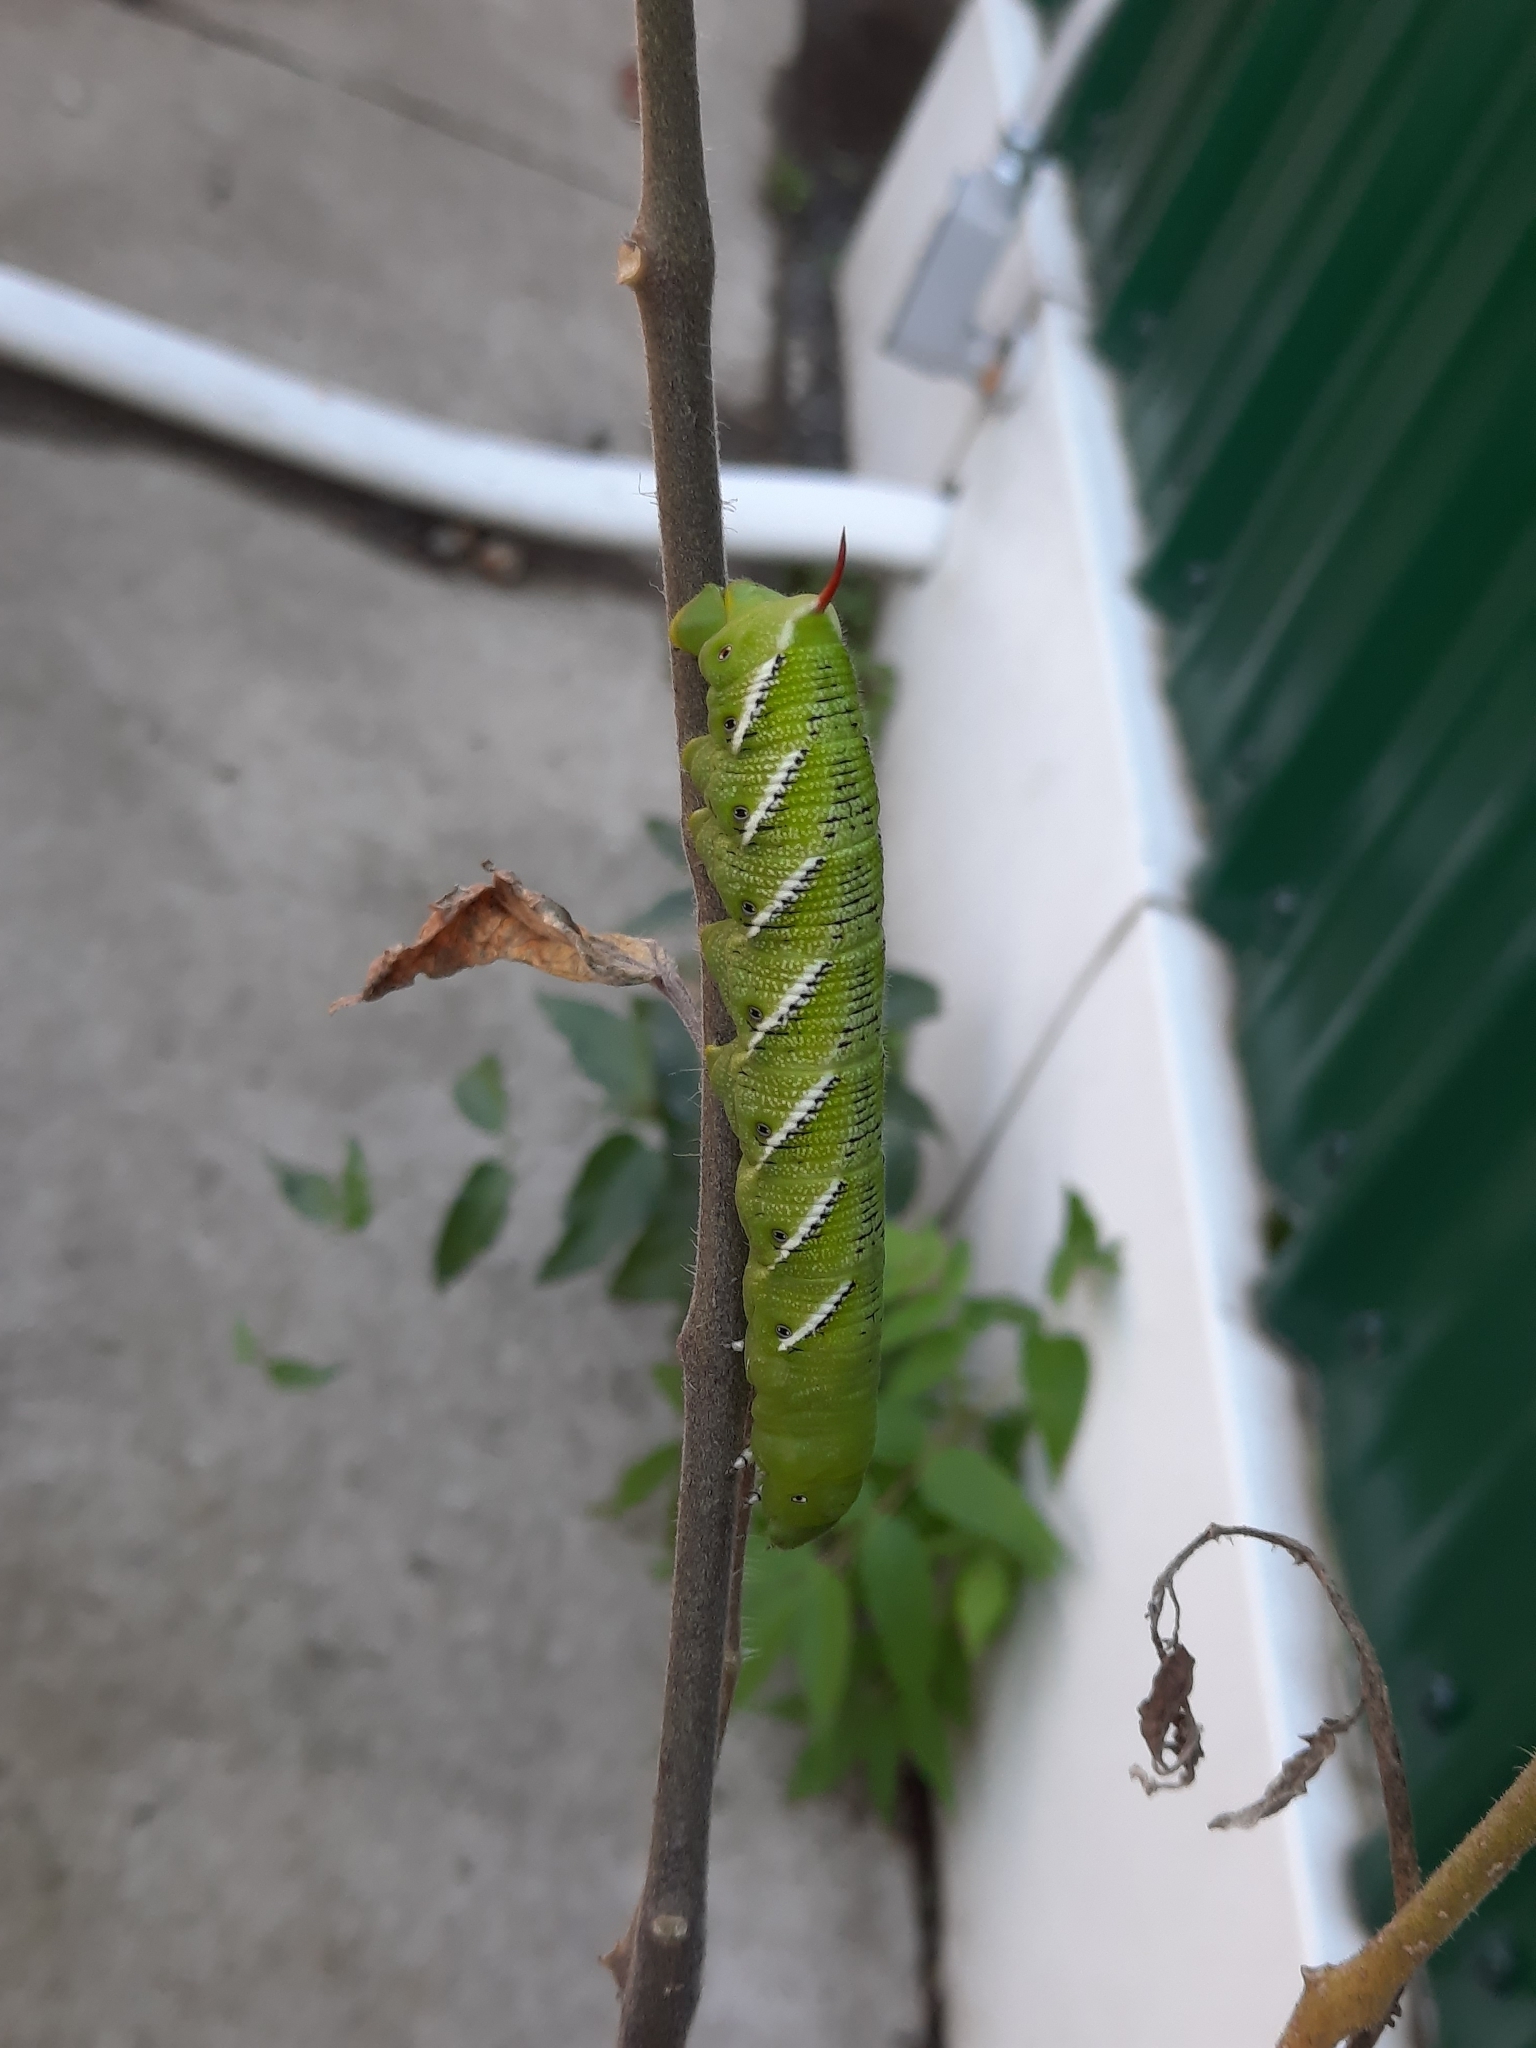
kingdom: Animalia
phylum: Arthropoda
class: Insecta
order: Lepidoptera
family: Sphingidae
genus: Manduca
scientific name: Manduca sexta
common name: Carolina sphinx
